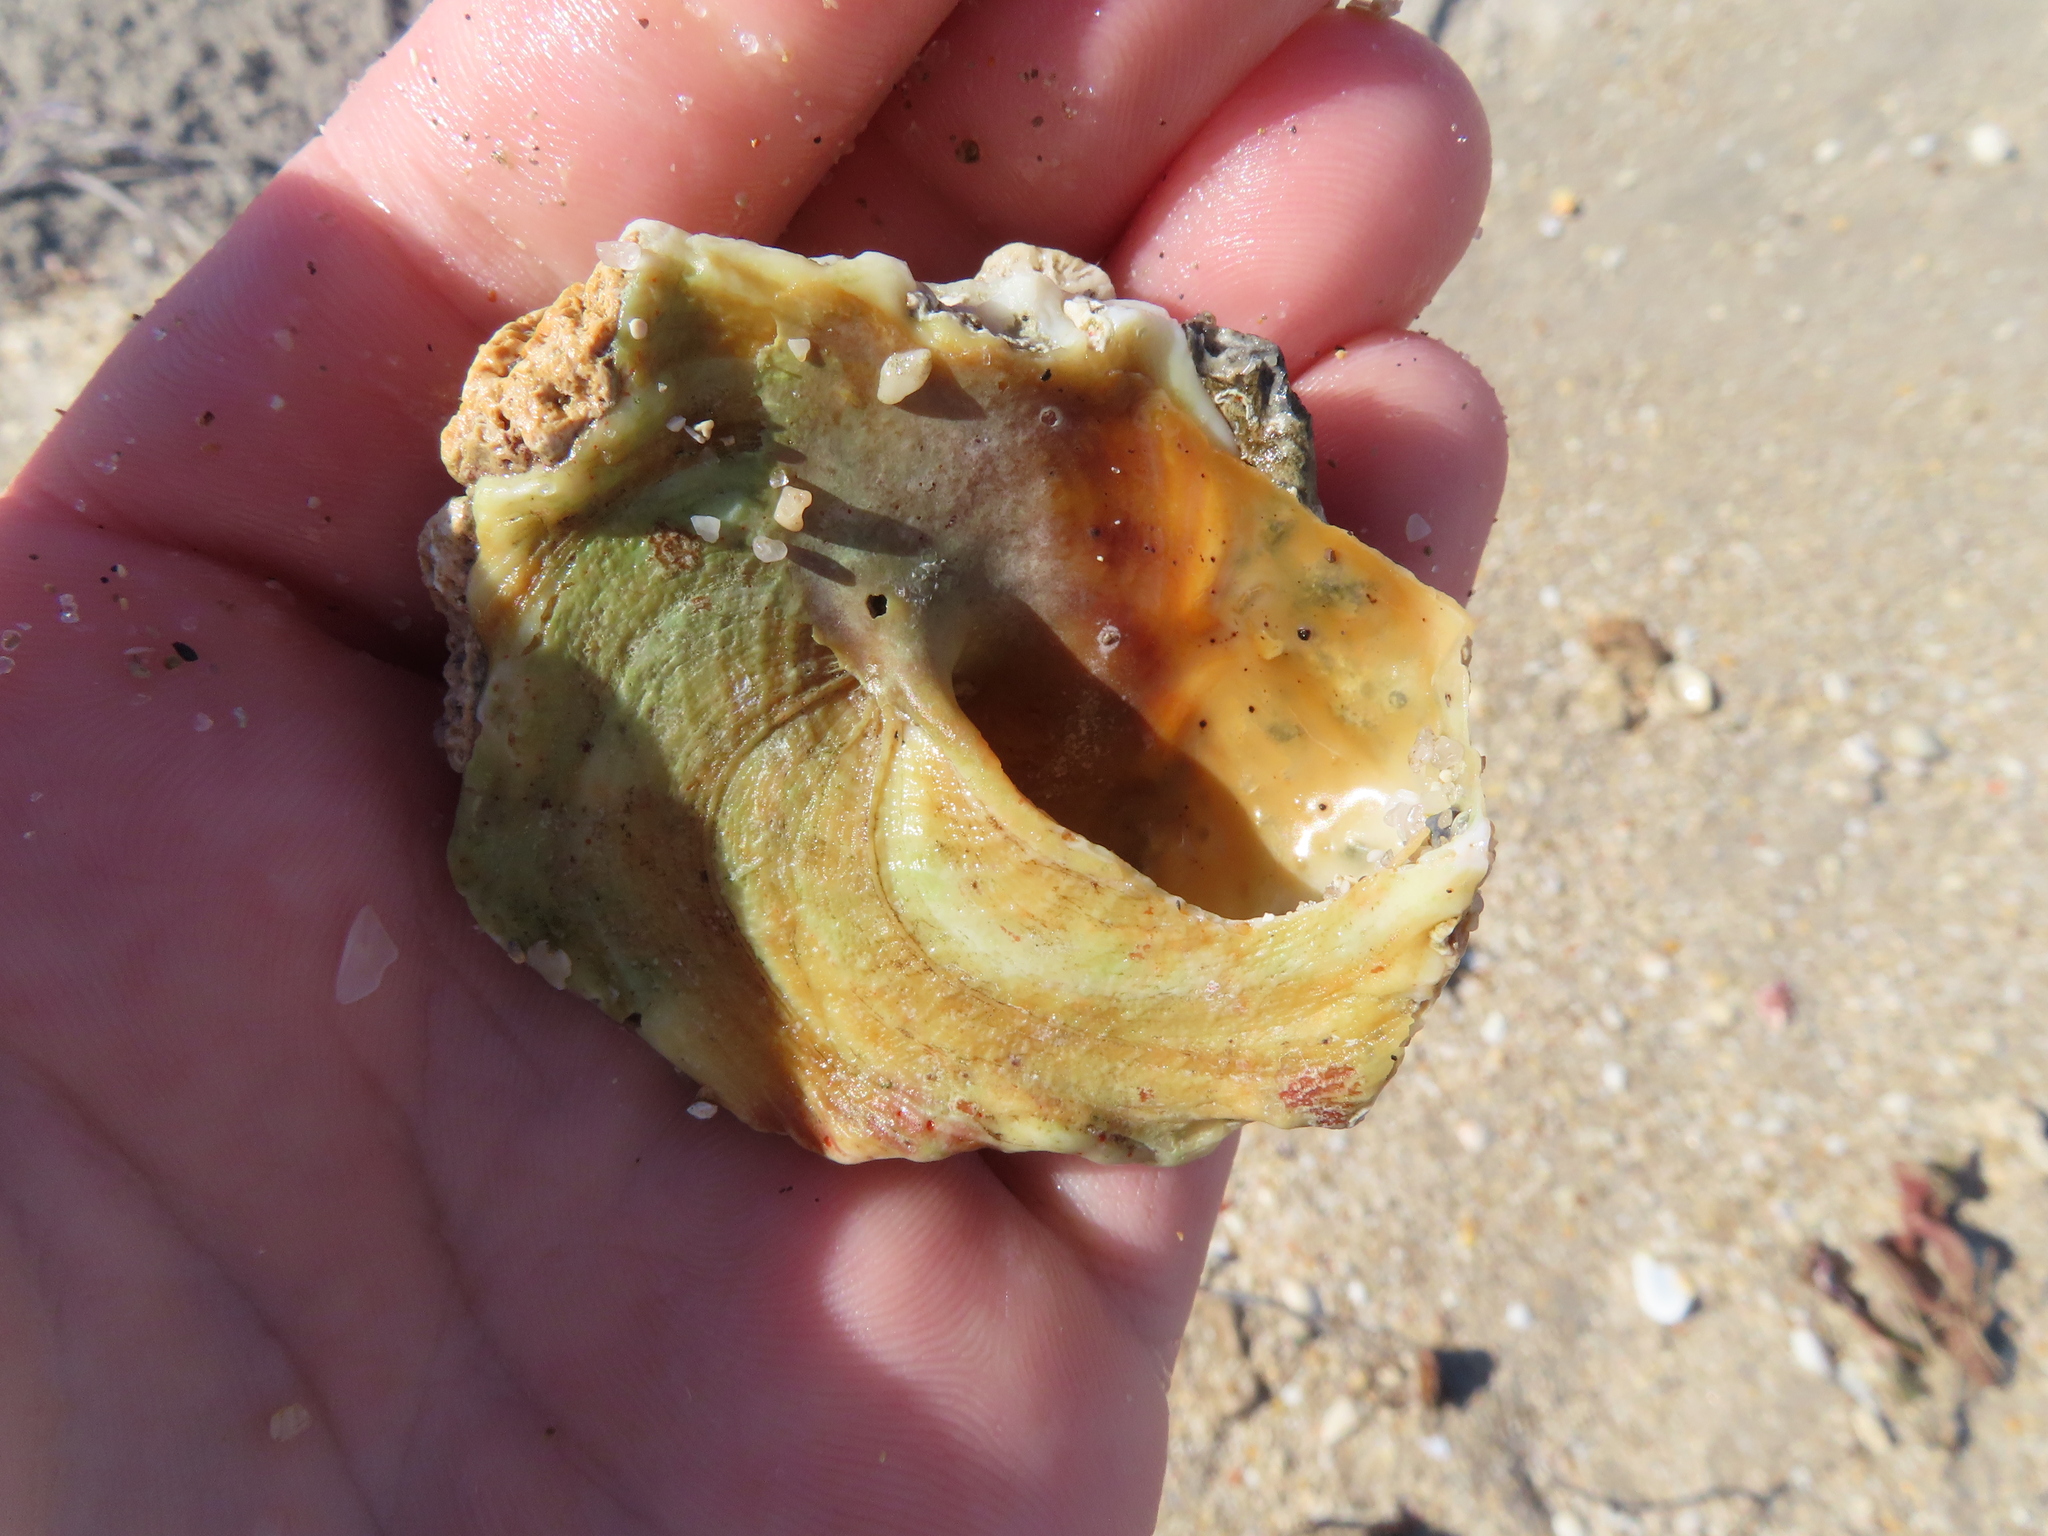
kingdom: Animalia
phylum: Mollusca
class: Gastropoda
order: Littorinimorpha
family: Xenophoridae
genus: Xenophora
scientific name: Xenophora conchyliophora
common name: American carriersnail
